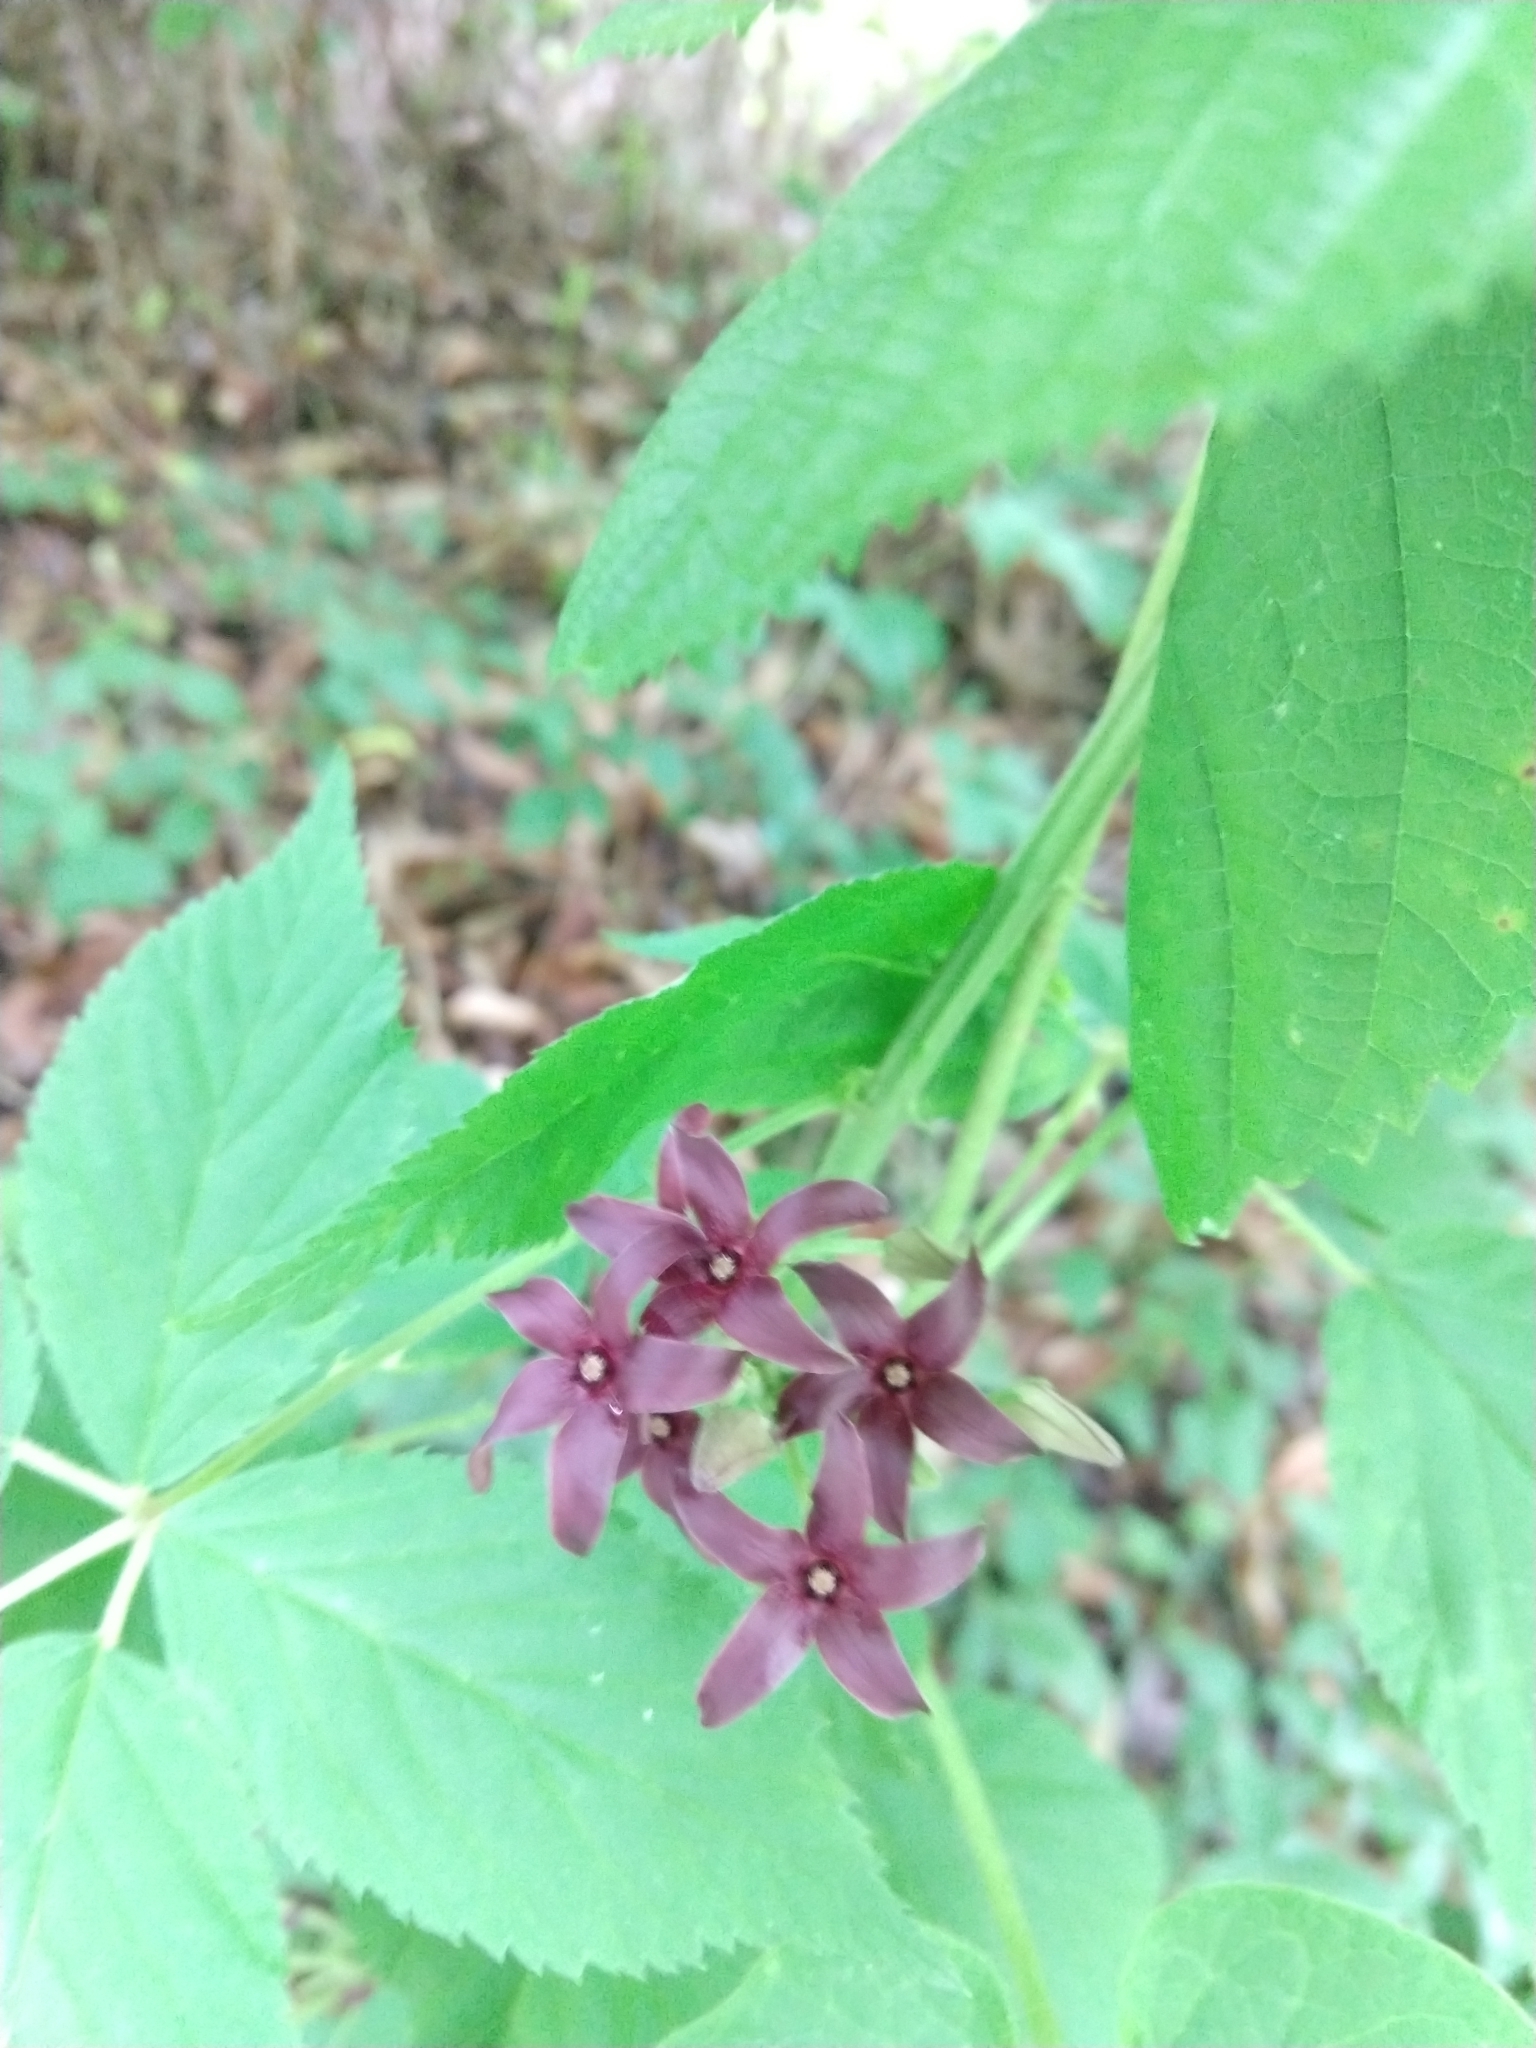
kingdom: Plantae
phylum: Tracheophyta
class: Magnoliopsida
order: Gentianales
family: Apocynaceae
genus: Matelea
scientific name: Matelea carolinensis
